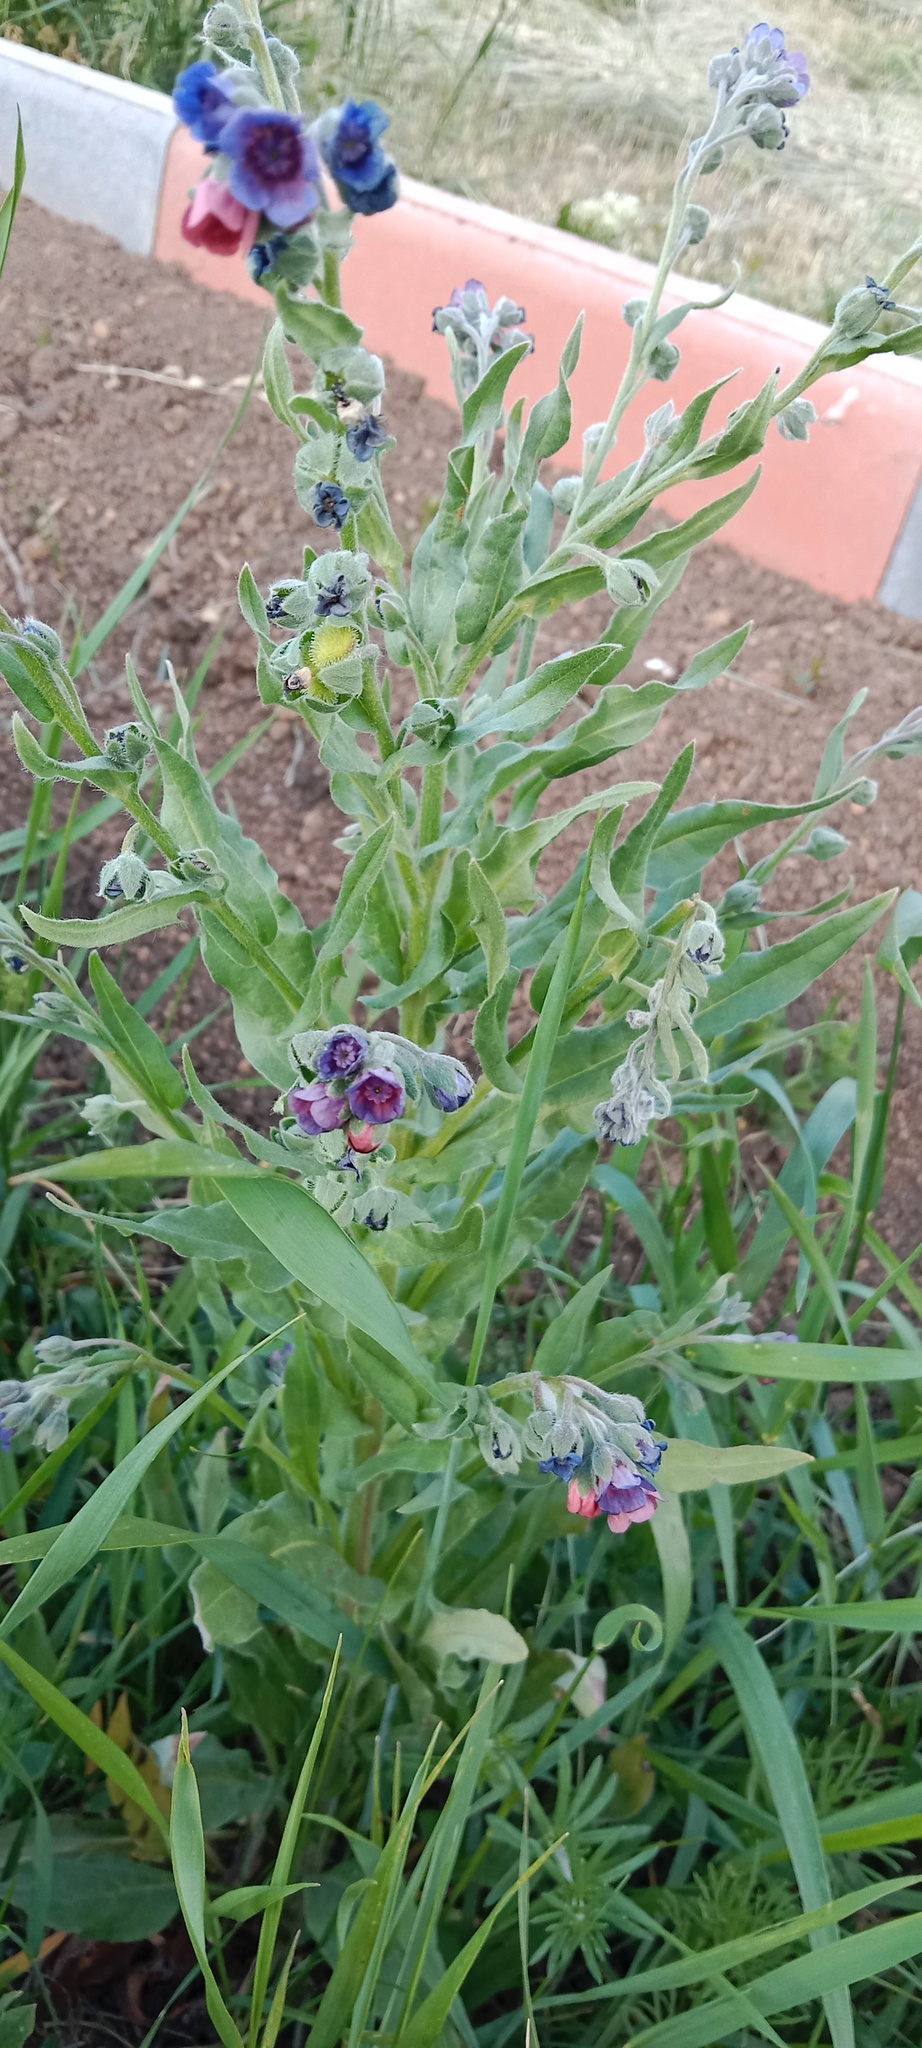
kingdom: Plantae
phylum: Tracheophyta
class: Magnoliopsida
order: Boraginales
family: Boraginaceae
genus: Cynoglossum
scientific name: Cynoglossum officinale
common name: Hound's-tongue
